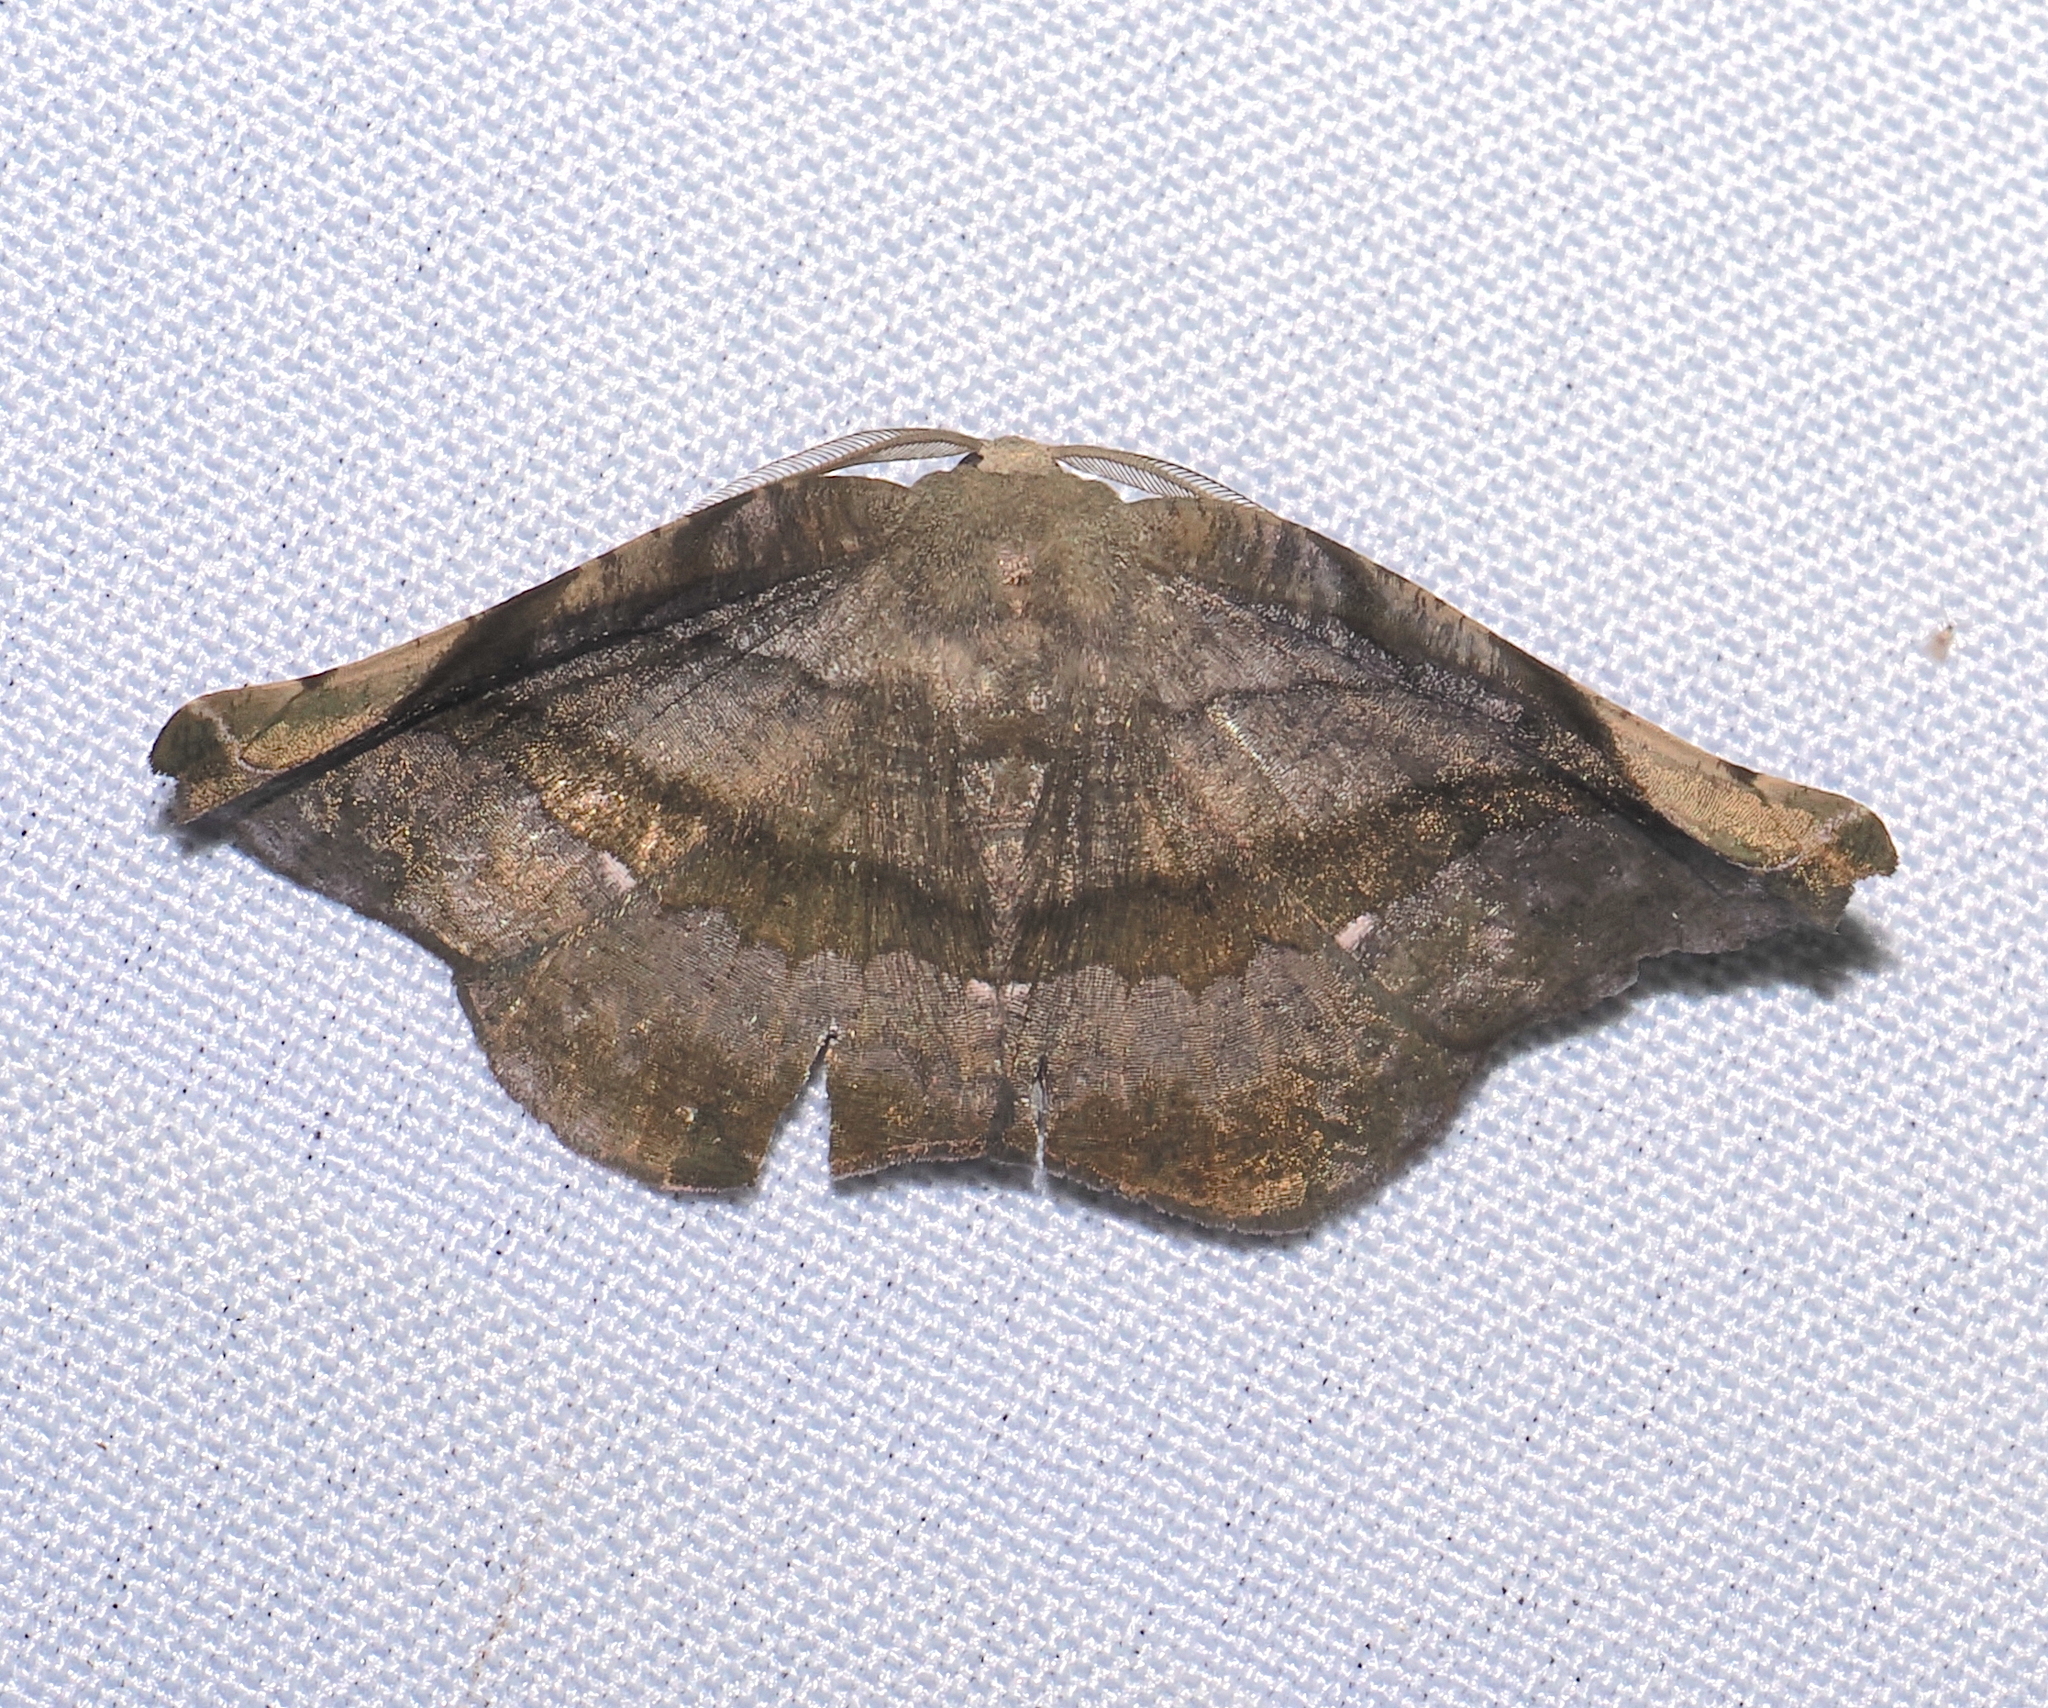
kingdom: Animalia
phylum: Arthropoda
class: Insecta
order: Lepidoptera
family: Geometridae
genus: Hygrochroma
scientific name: Hygrochroma nondina
